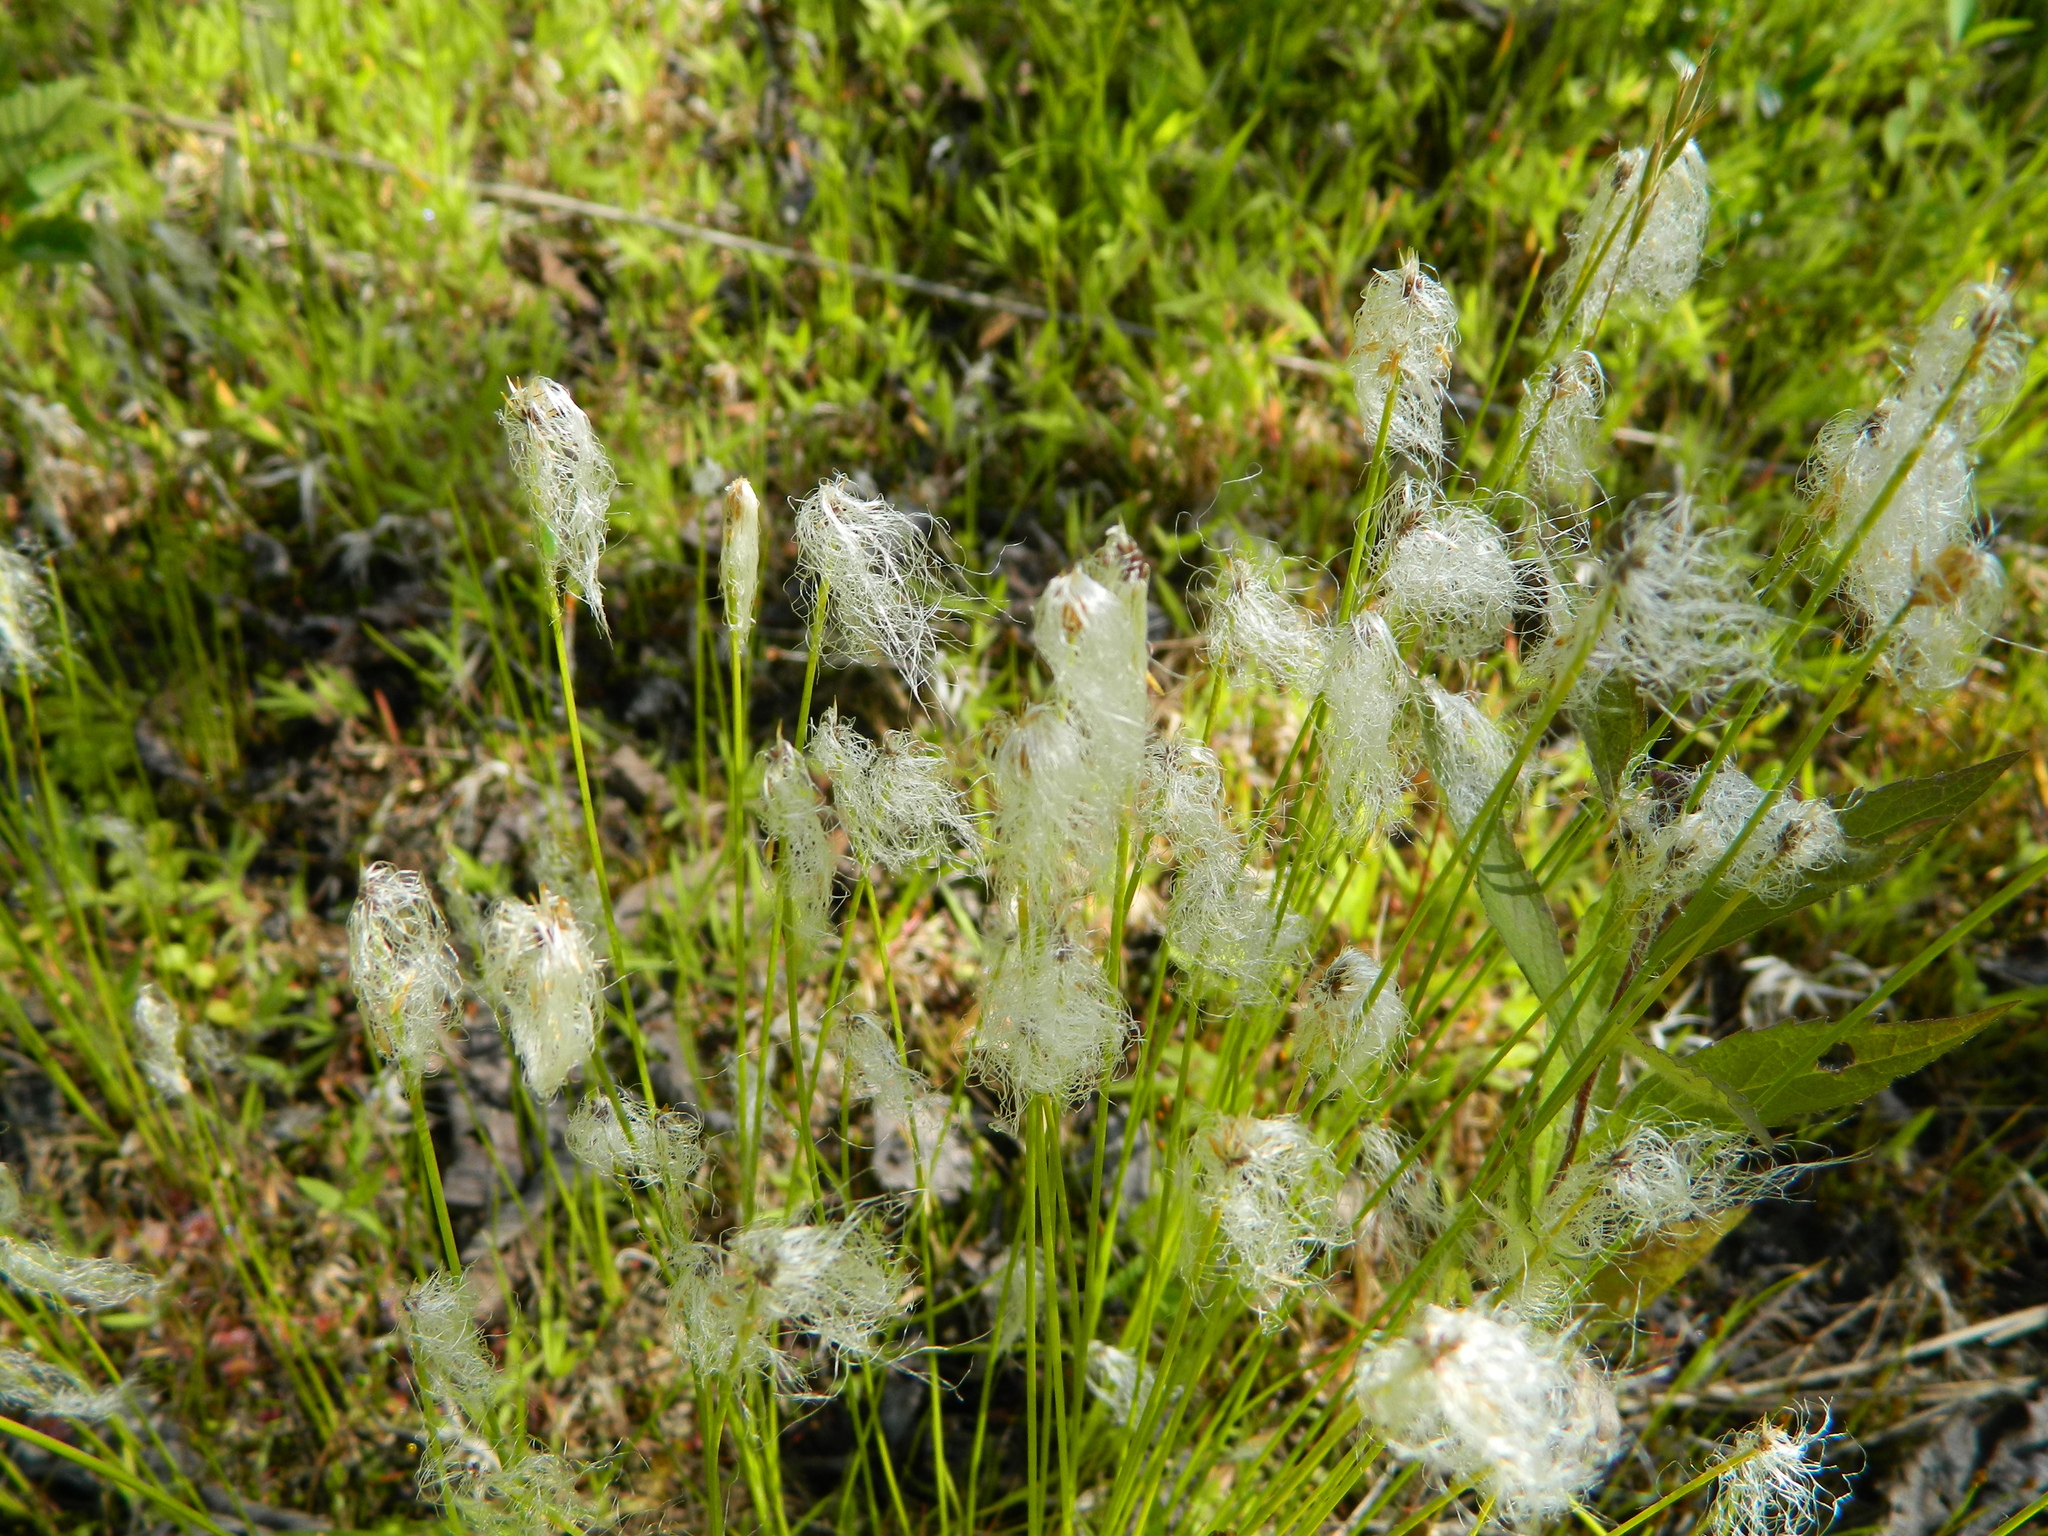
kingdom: Plantae
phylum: Tracheophyta
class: Liliopsida
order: Poales
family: Cyperaceae
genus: Trichophorum
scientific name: Trichophorum alpinum
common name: Alpine bulrush
